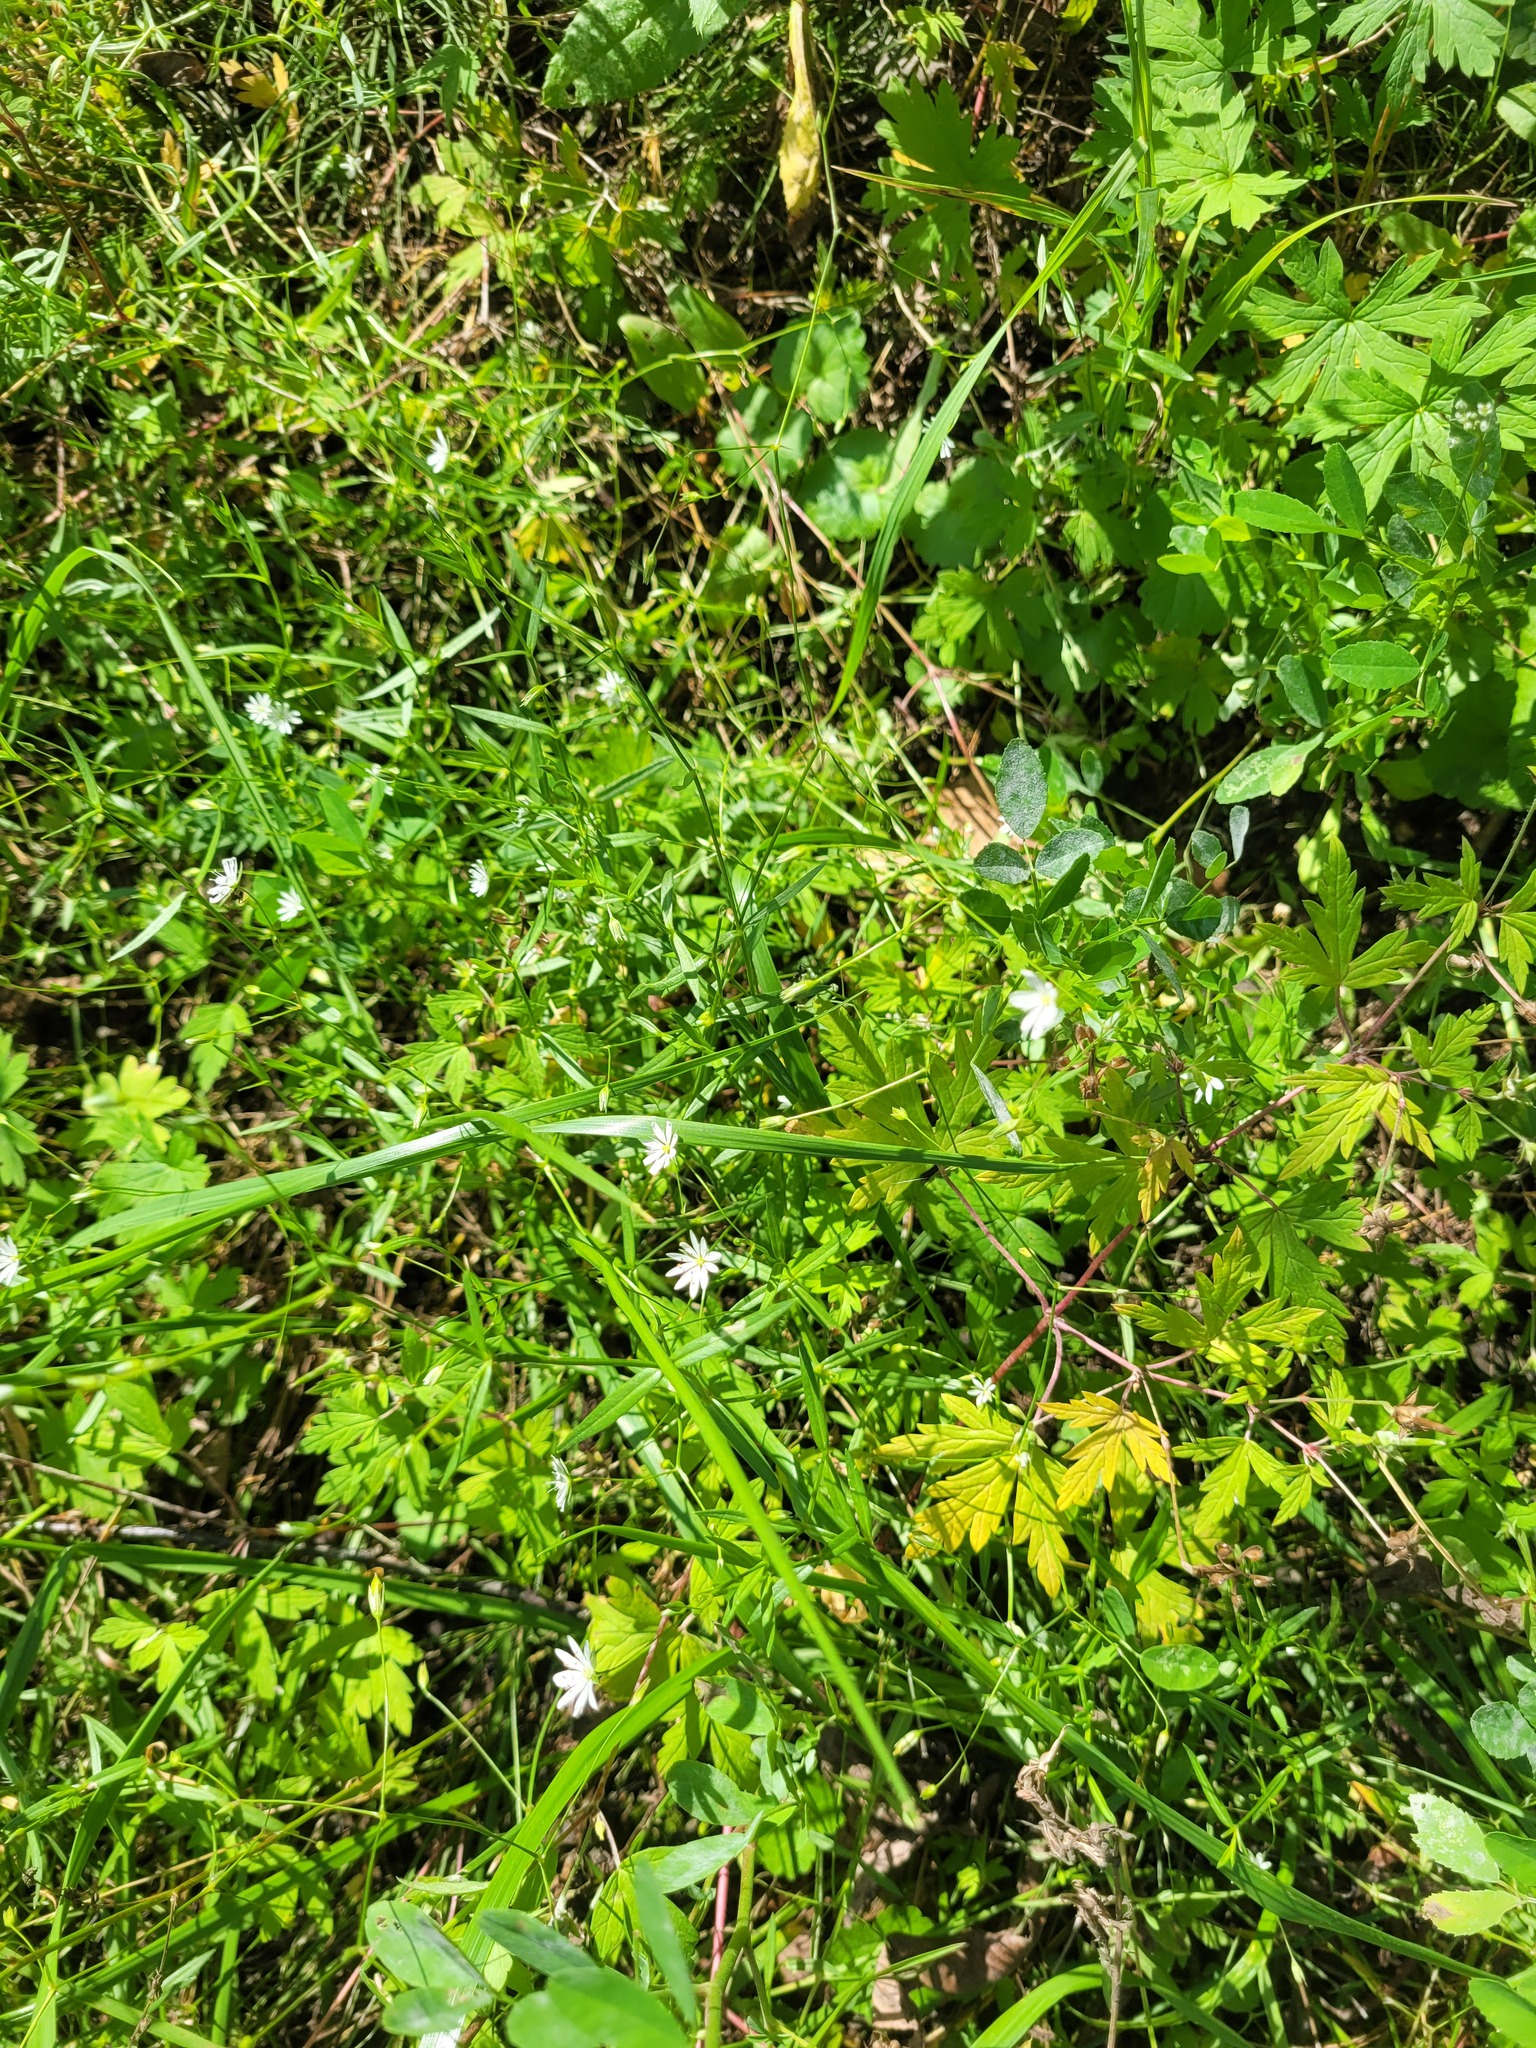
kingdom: Plantae
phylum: Tracheophyta
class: Magnoliopsida
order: Caryophyllales
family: Caryophyllaceae
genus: Stellaria
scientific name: Stellaria graminea
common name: Grass-like starwort
